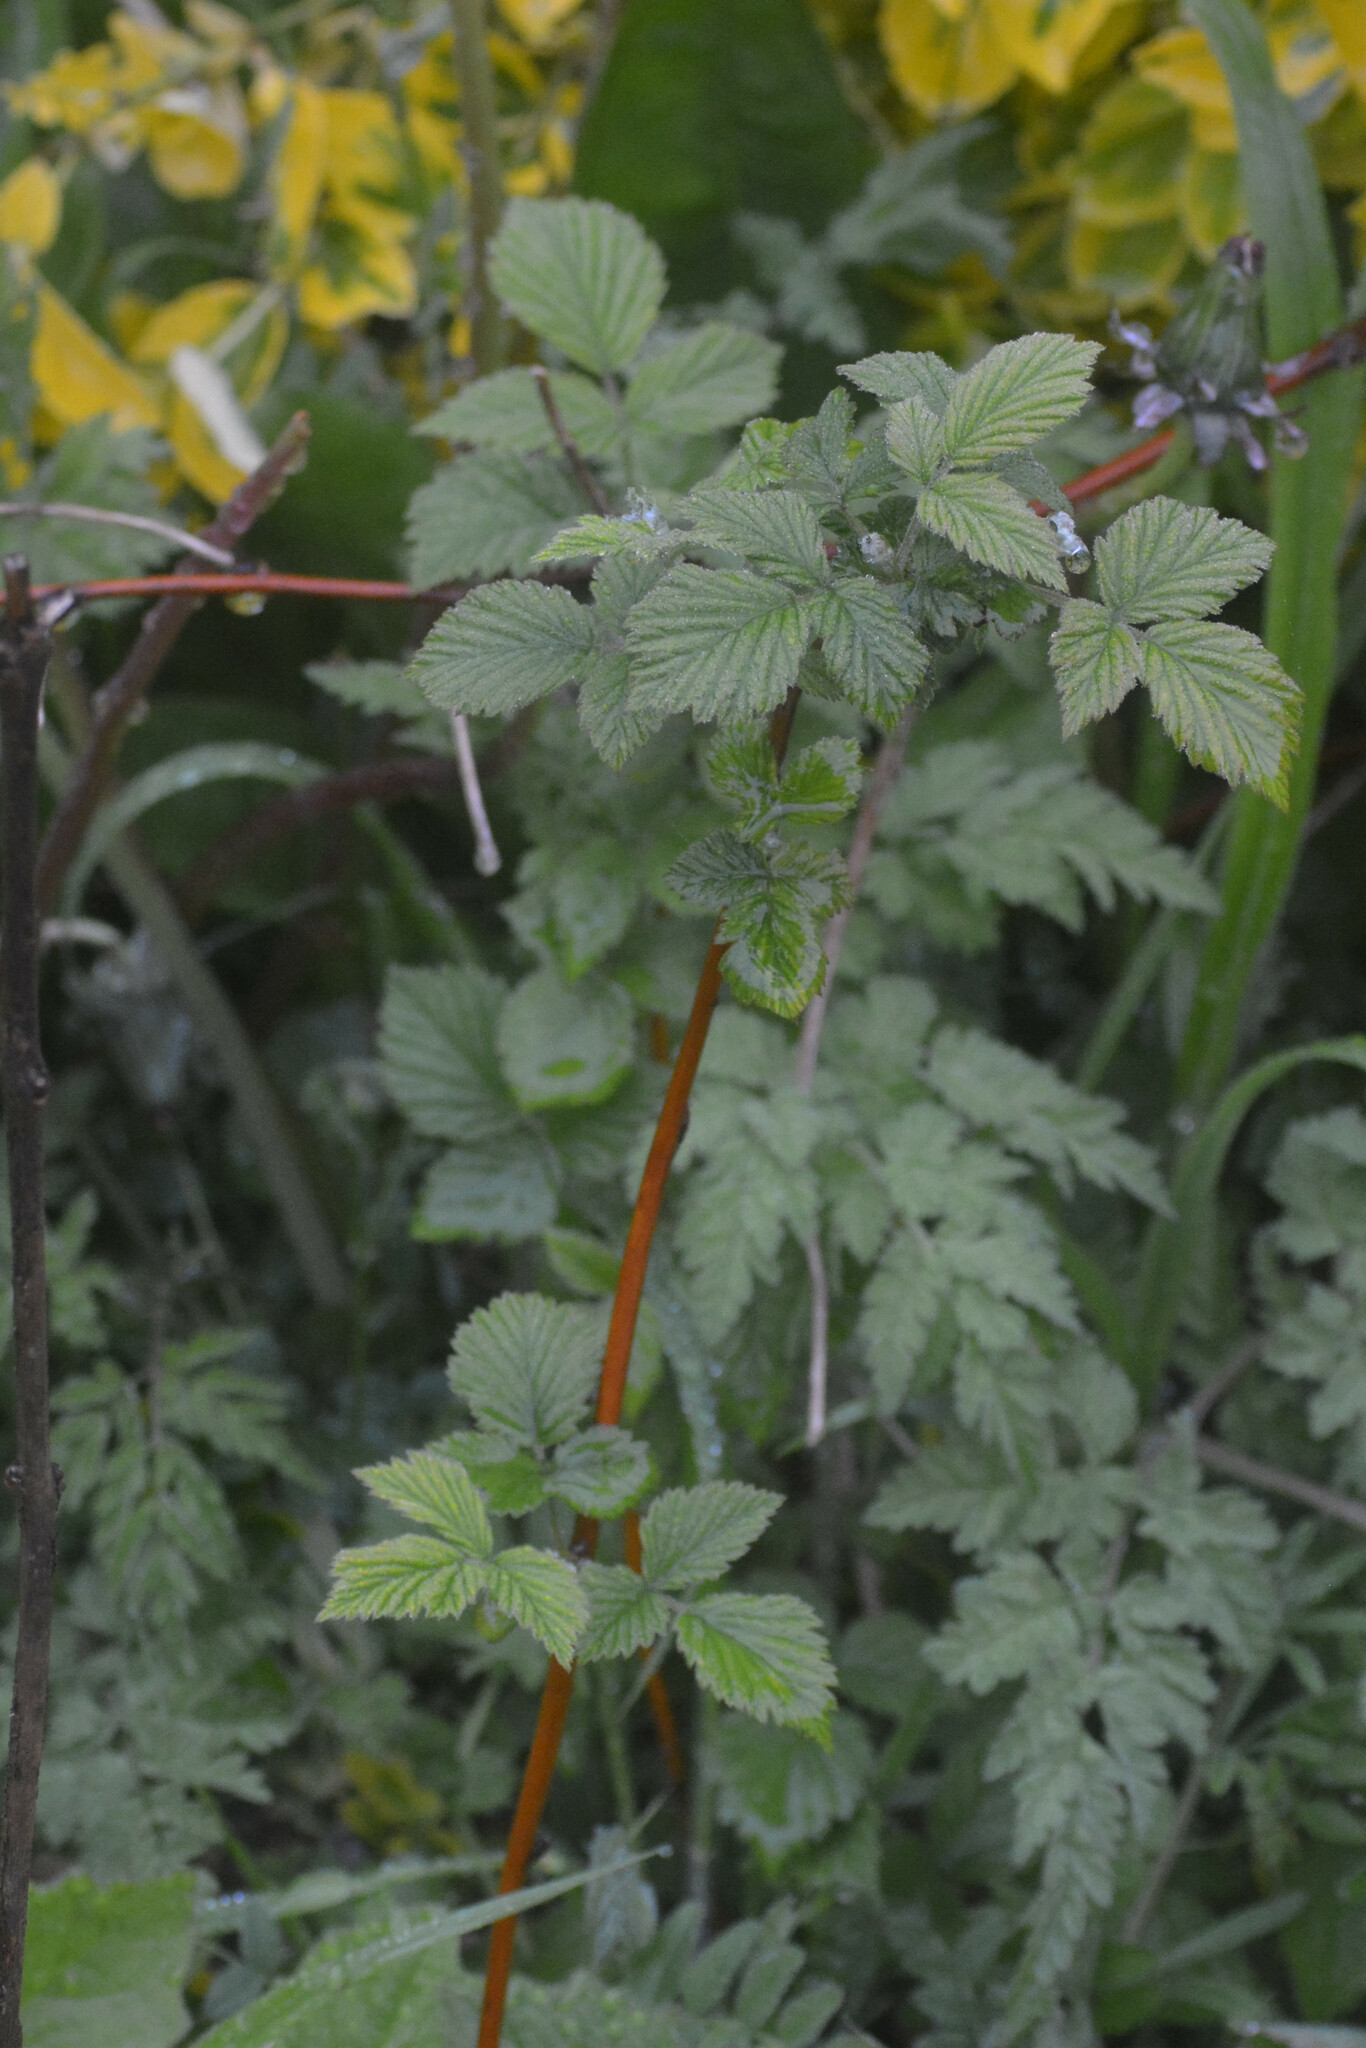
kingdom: Plantae
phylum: Tracheophyta
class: Magnoliopsida
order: Rosales
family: Rosaceae
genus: Rubus
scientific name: Rubus idaeus
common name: Raspberry
